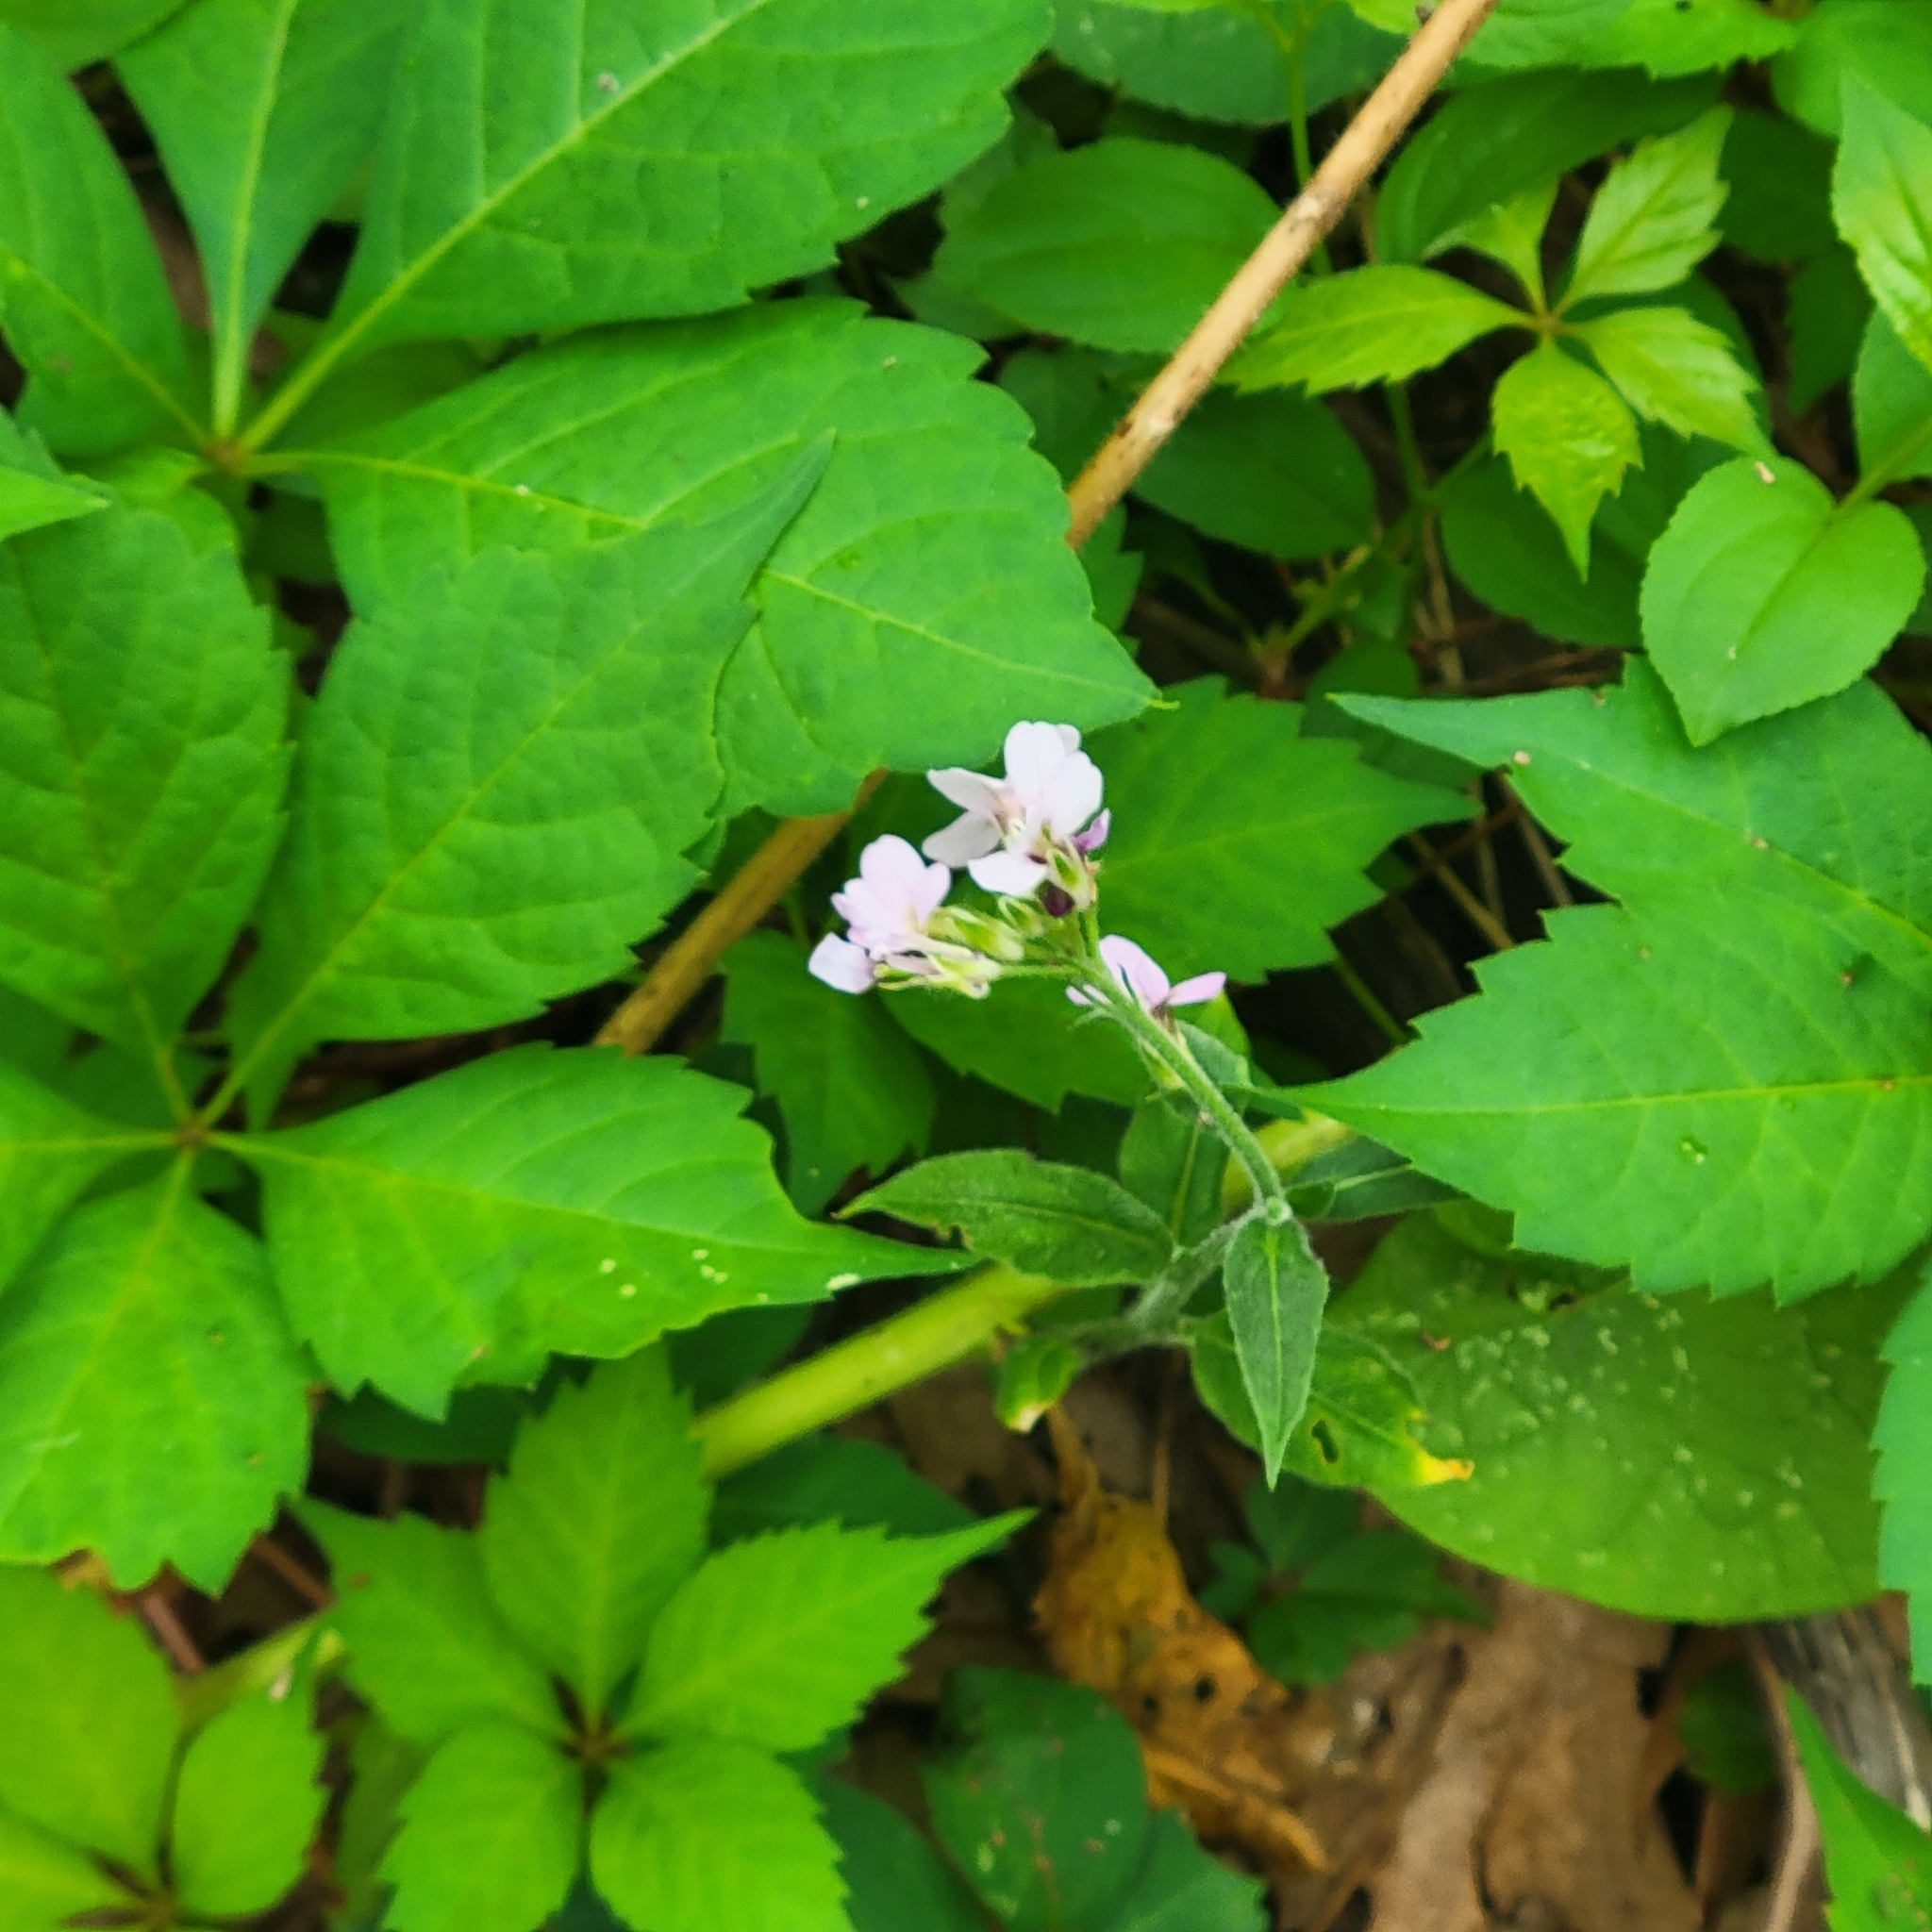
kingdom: Plantae
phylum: Tracheophyta
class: Magnoliopsida
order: Brassicales
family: Brassicaceae
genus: Hesperis
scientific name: Hesperis matronalis
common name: Dame's-violet
